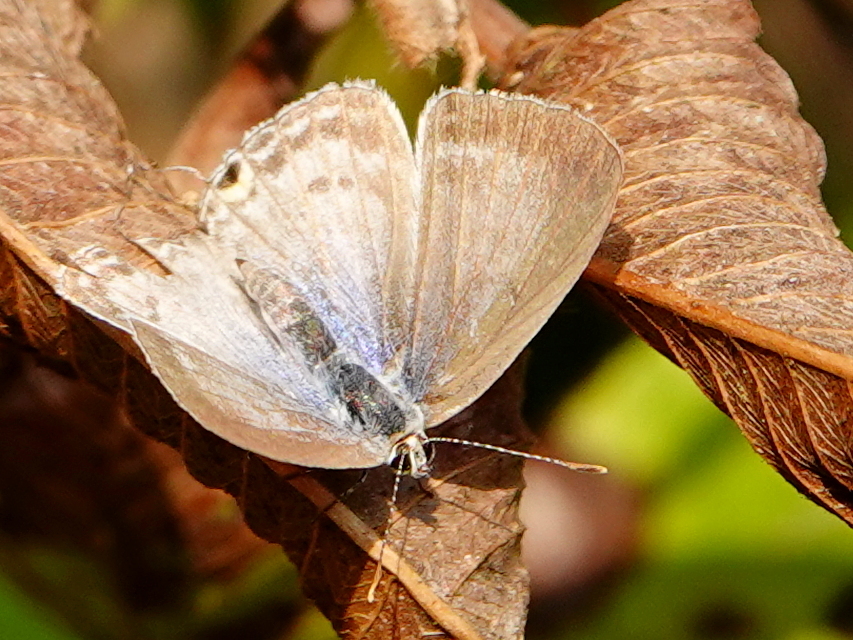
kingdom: Animalia
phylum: Arthropoda
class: Insecta
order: Lepidoptera
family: Lycaenidae
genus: Catochrysops
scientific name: Catochrysops strabo
